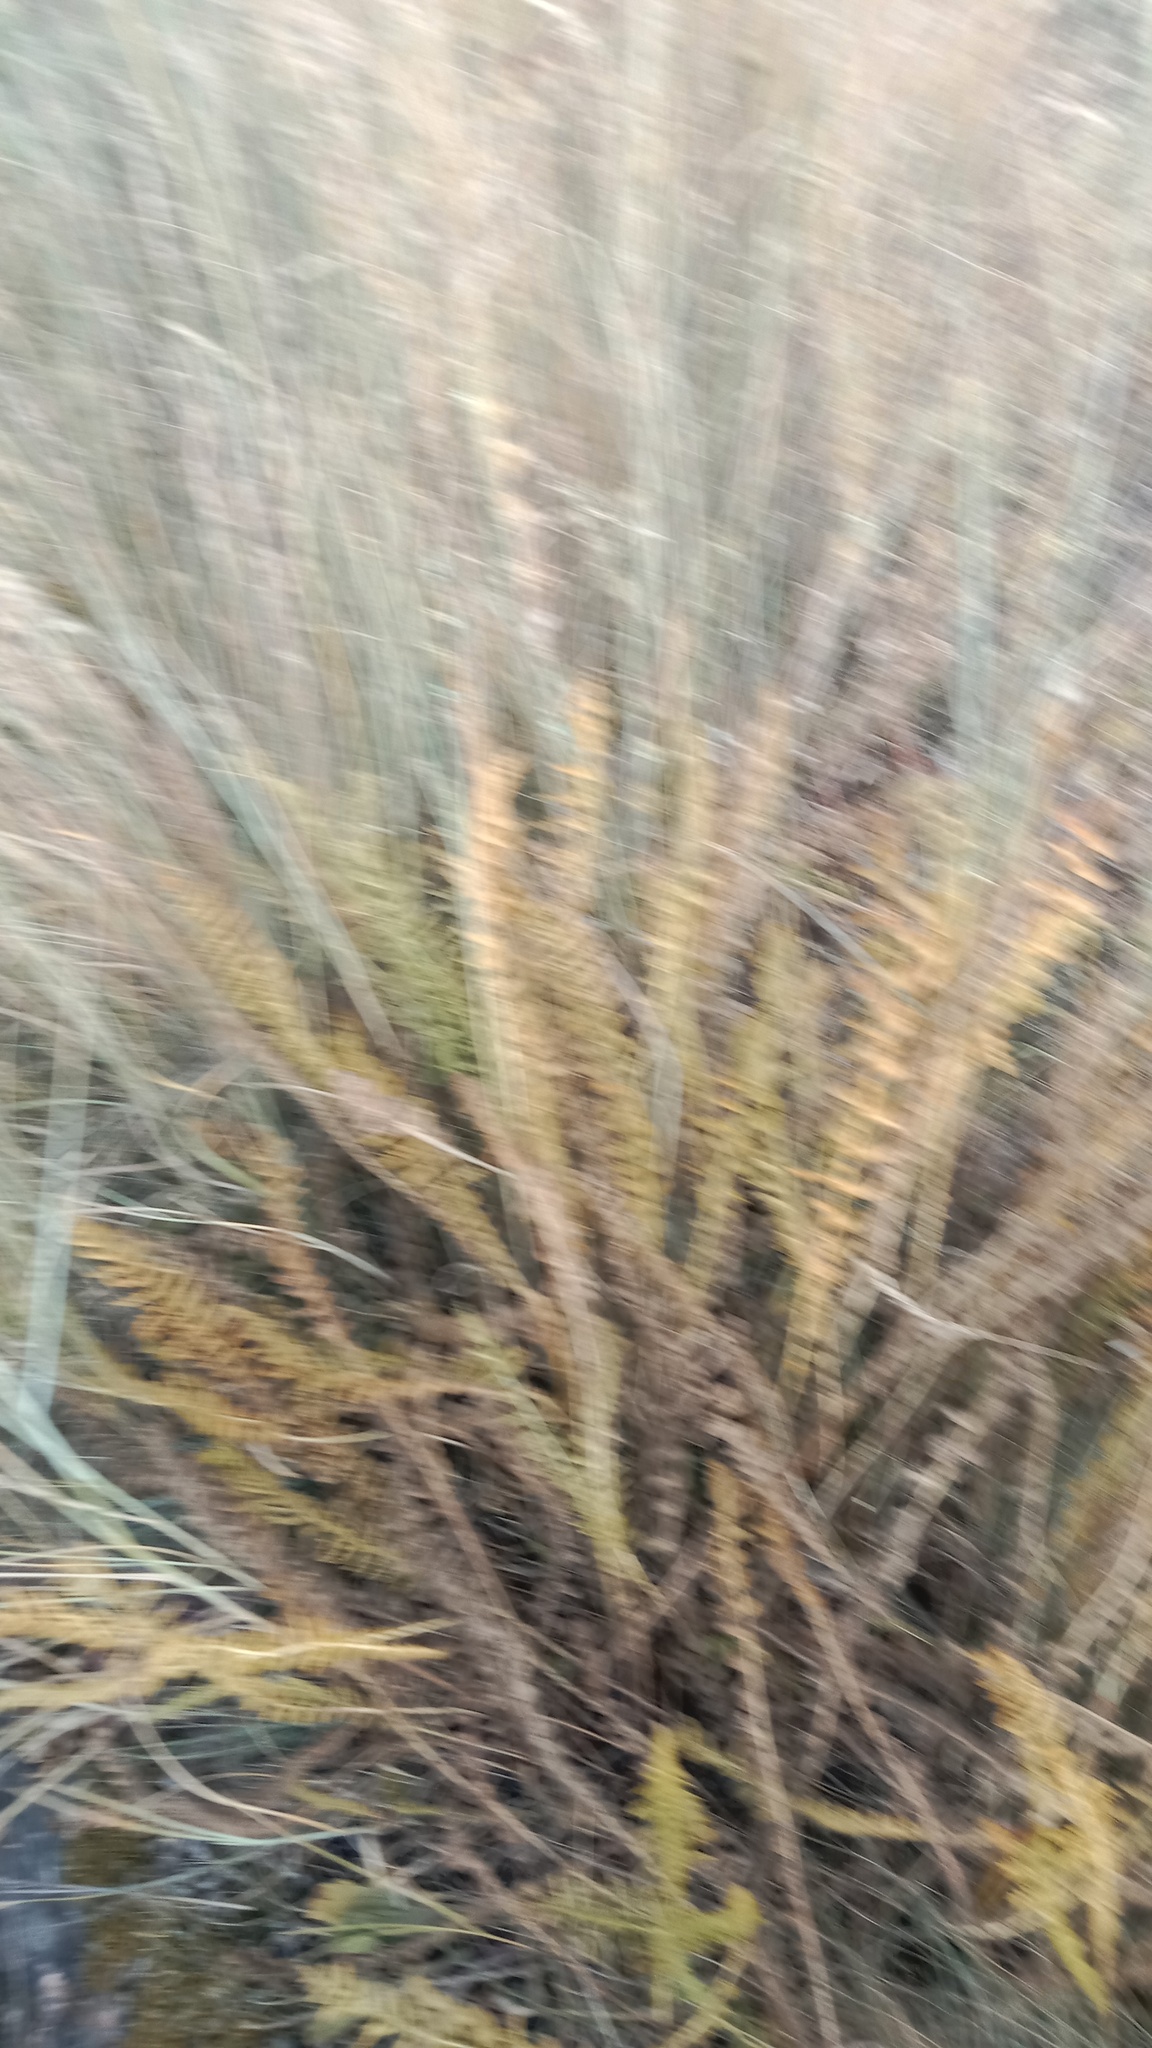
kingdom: Plantae
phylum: Tracheophyta
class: Magnoliopsida
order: Rosales
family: Rosaceae
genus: Filipendula
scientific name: Filipendula vulgaris
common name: Dropwort
